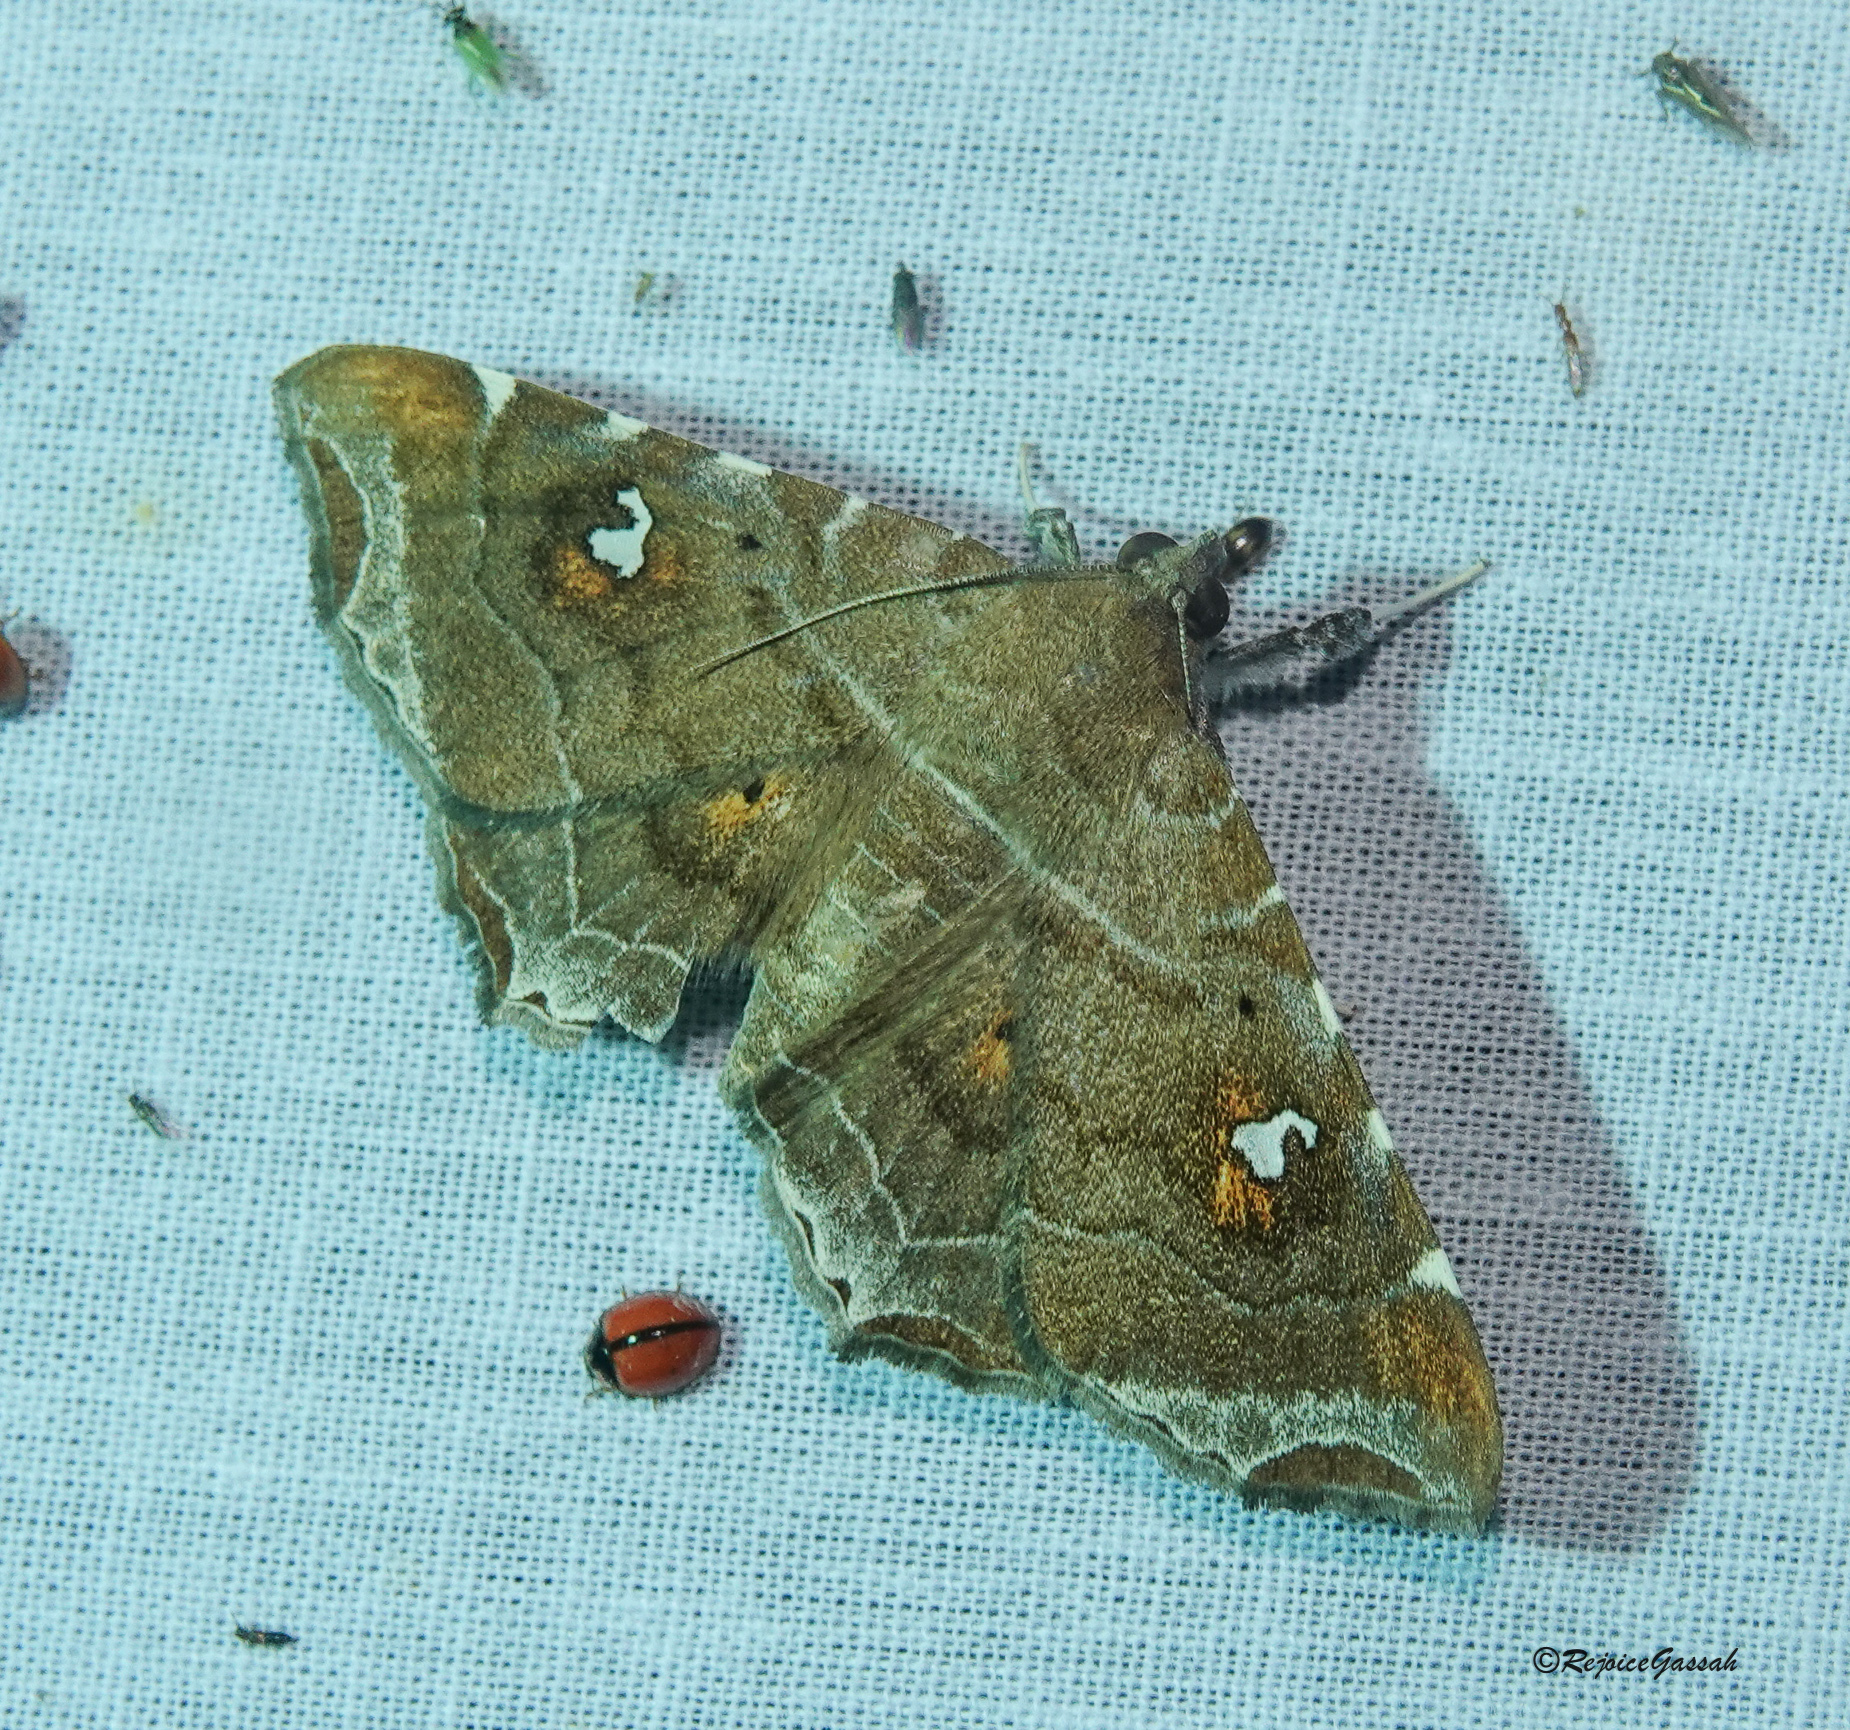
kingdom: Animalia
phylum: Arthropoda
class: Insecta
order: Lepidoptera
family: Erebidae
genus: Episparis
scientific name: Episparis liturata
